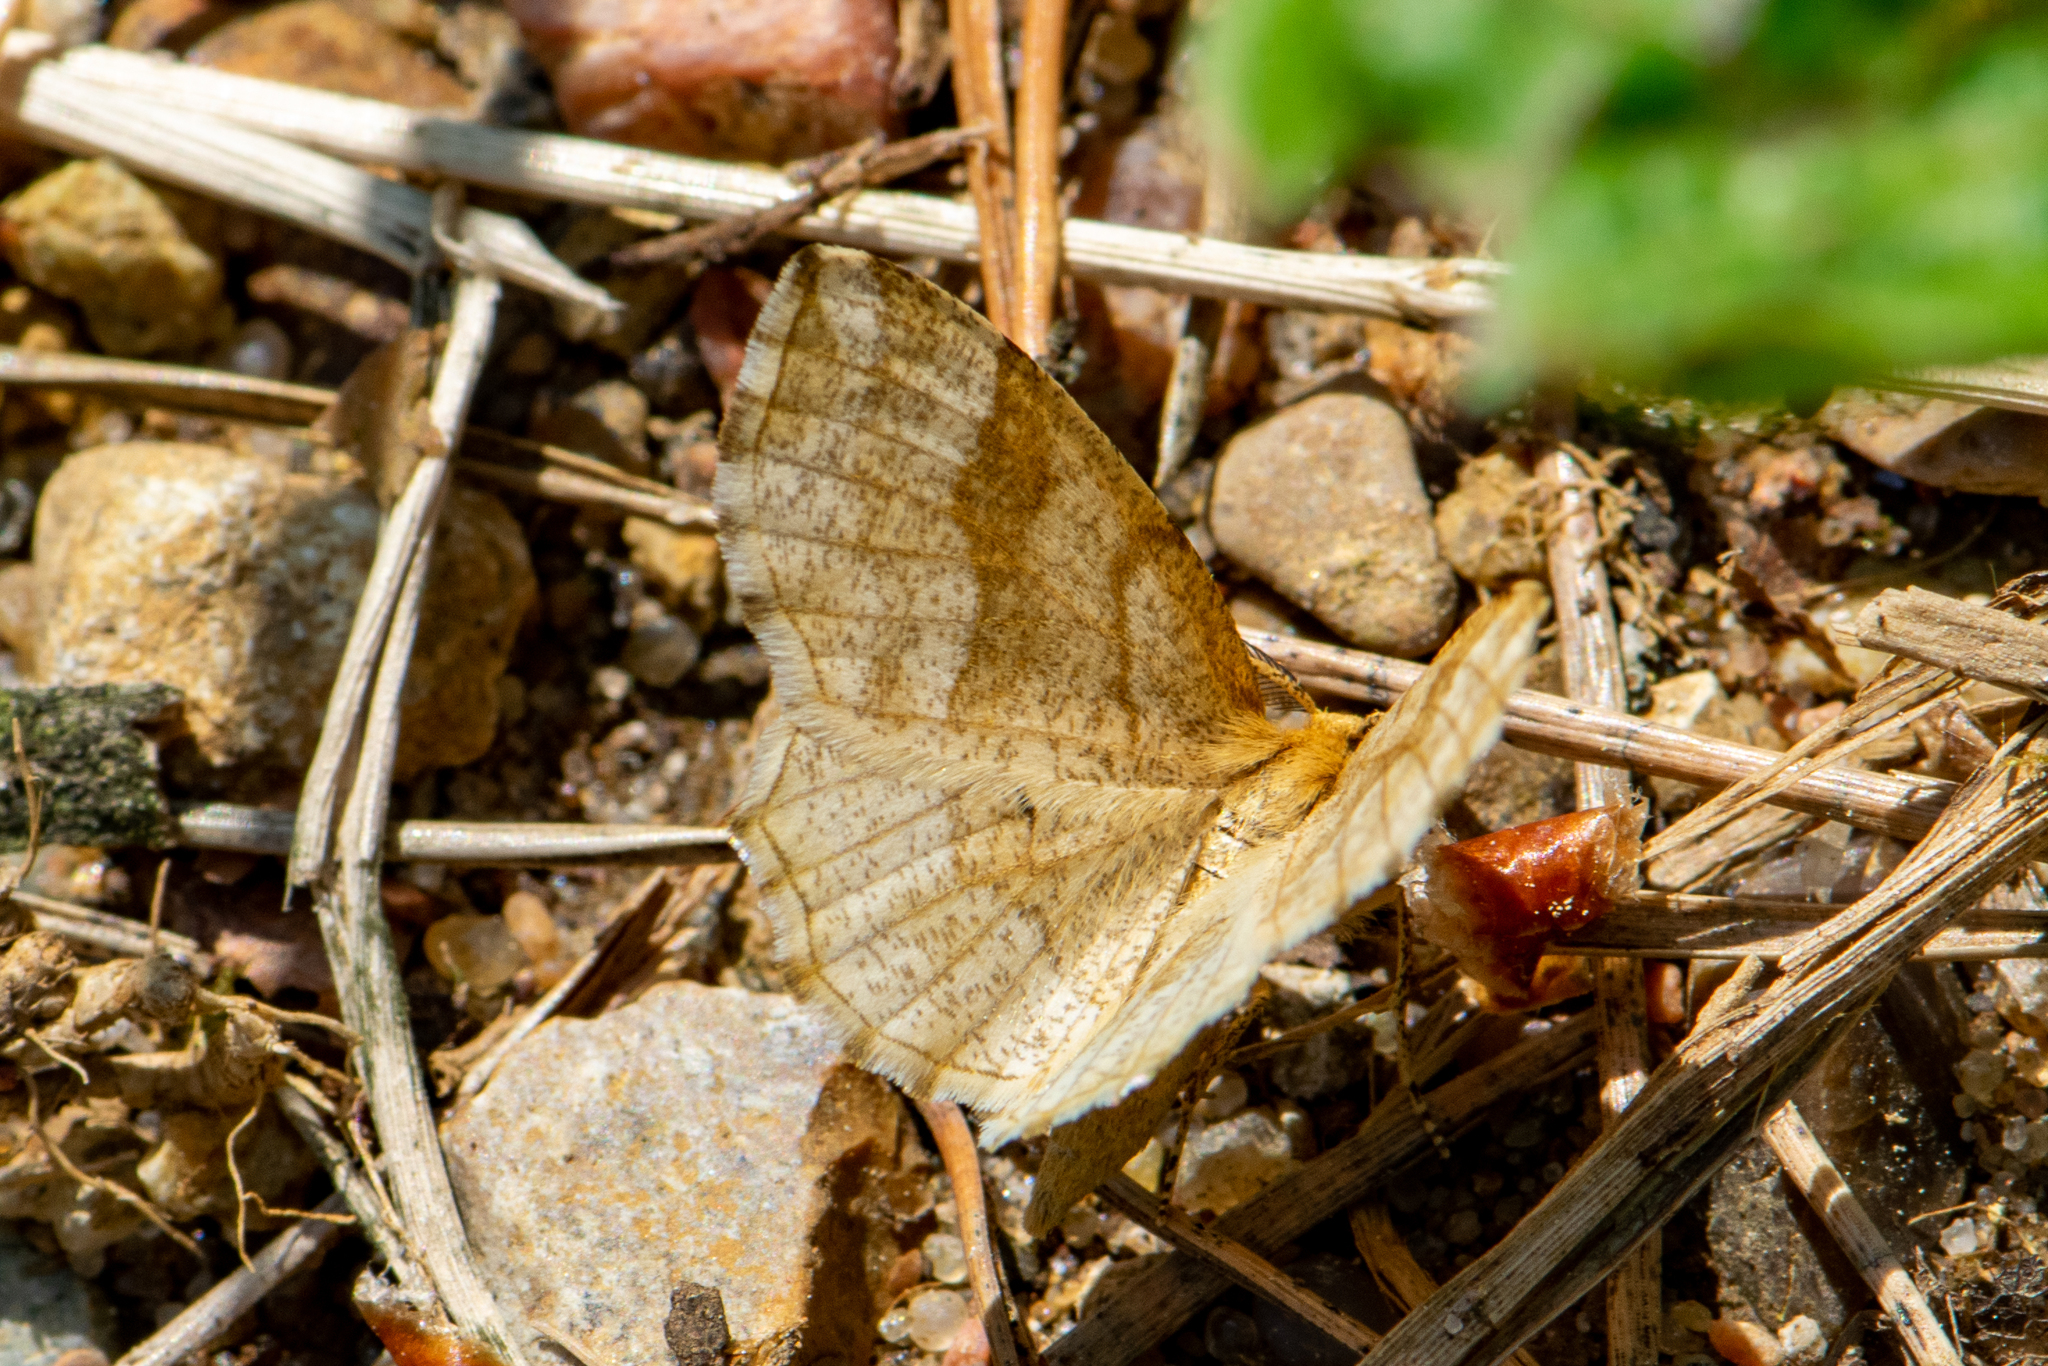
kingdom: Animalia
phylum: Arthropoda
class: Insecta
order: Lepidoptera
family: Geometridae
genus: Cepphis
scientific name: Cepphis advenaria
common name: Little thorn
